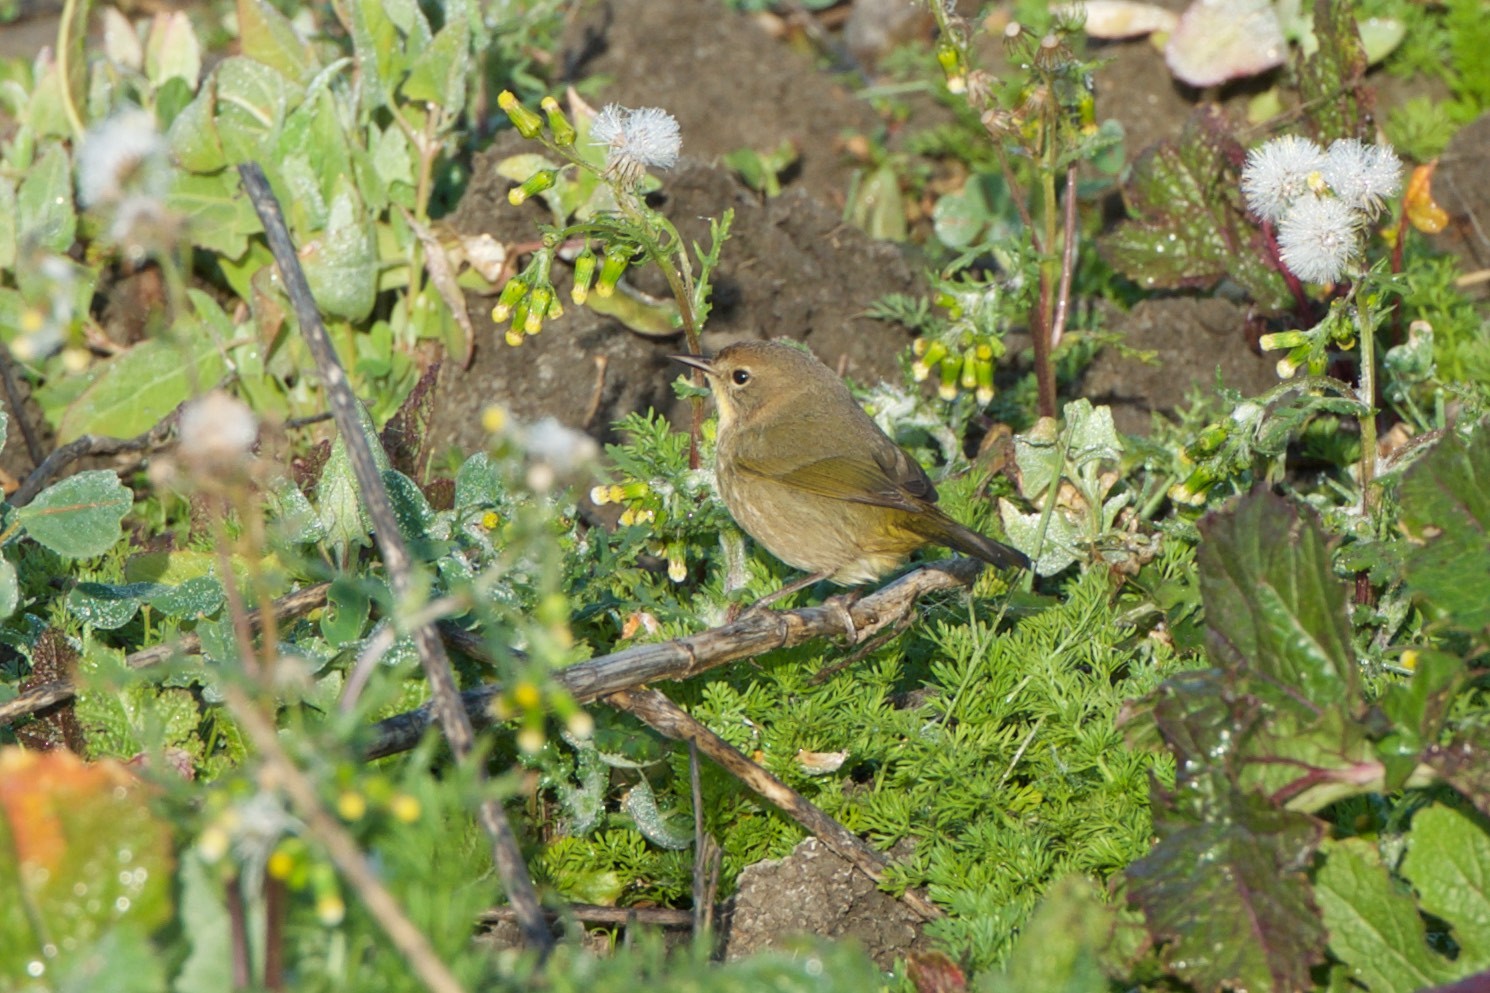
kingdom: Animalia
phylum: Chordata
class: Aves
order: Passeriformes
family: Parulidae
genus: Geothlypis
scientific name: Geothlypis trichas
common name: Common yellowthroat
